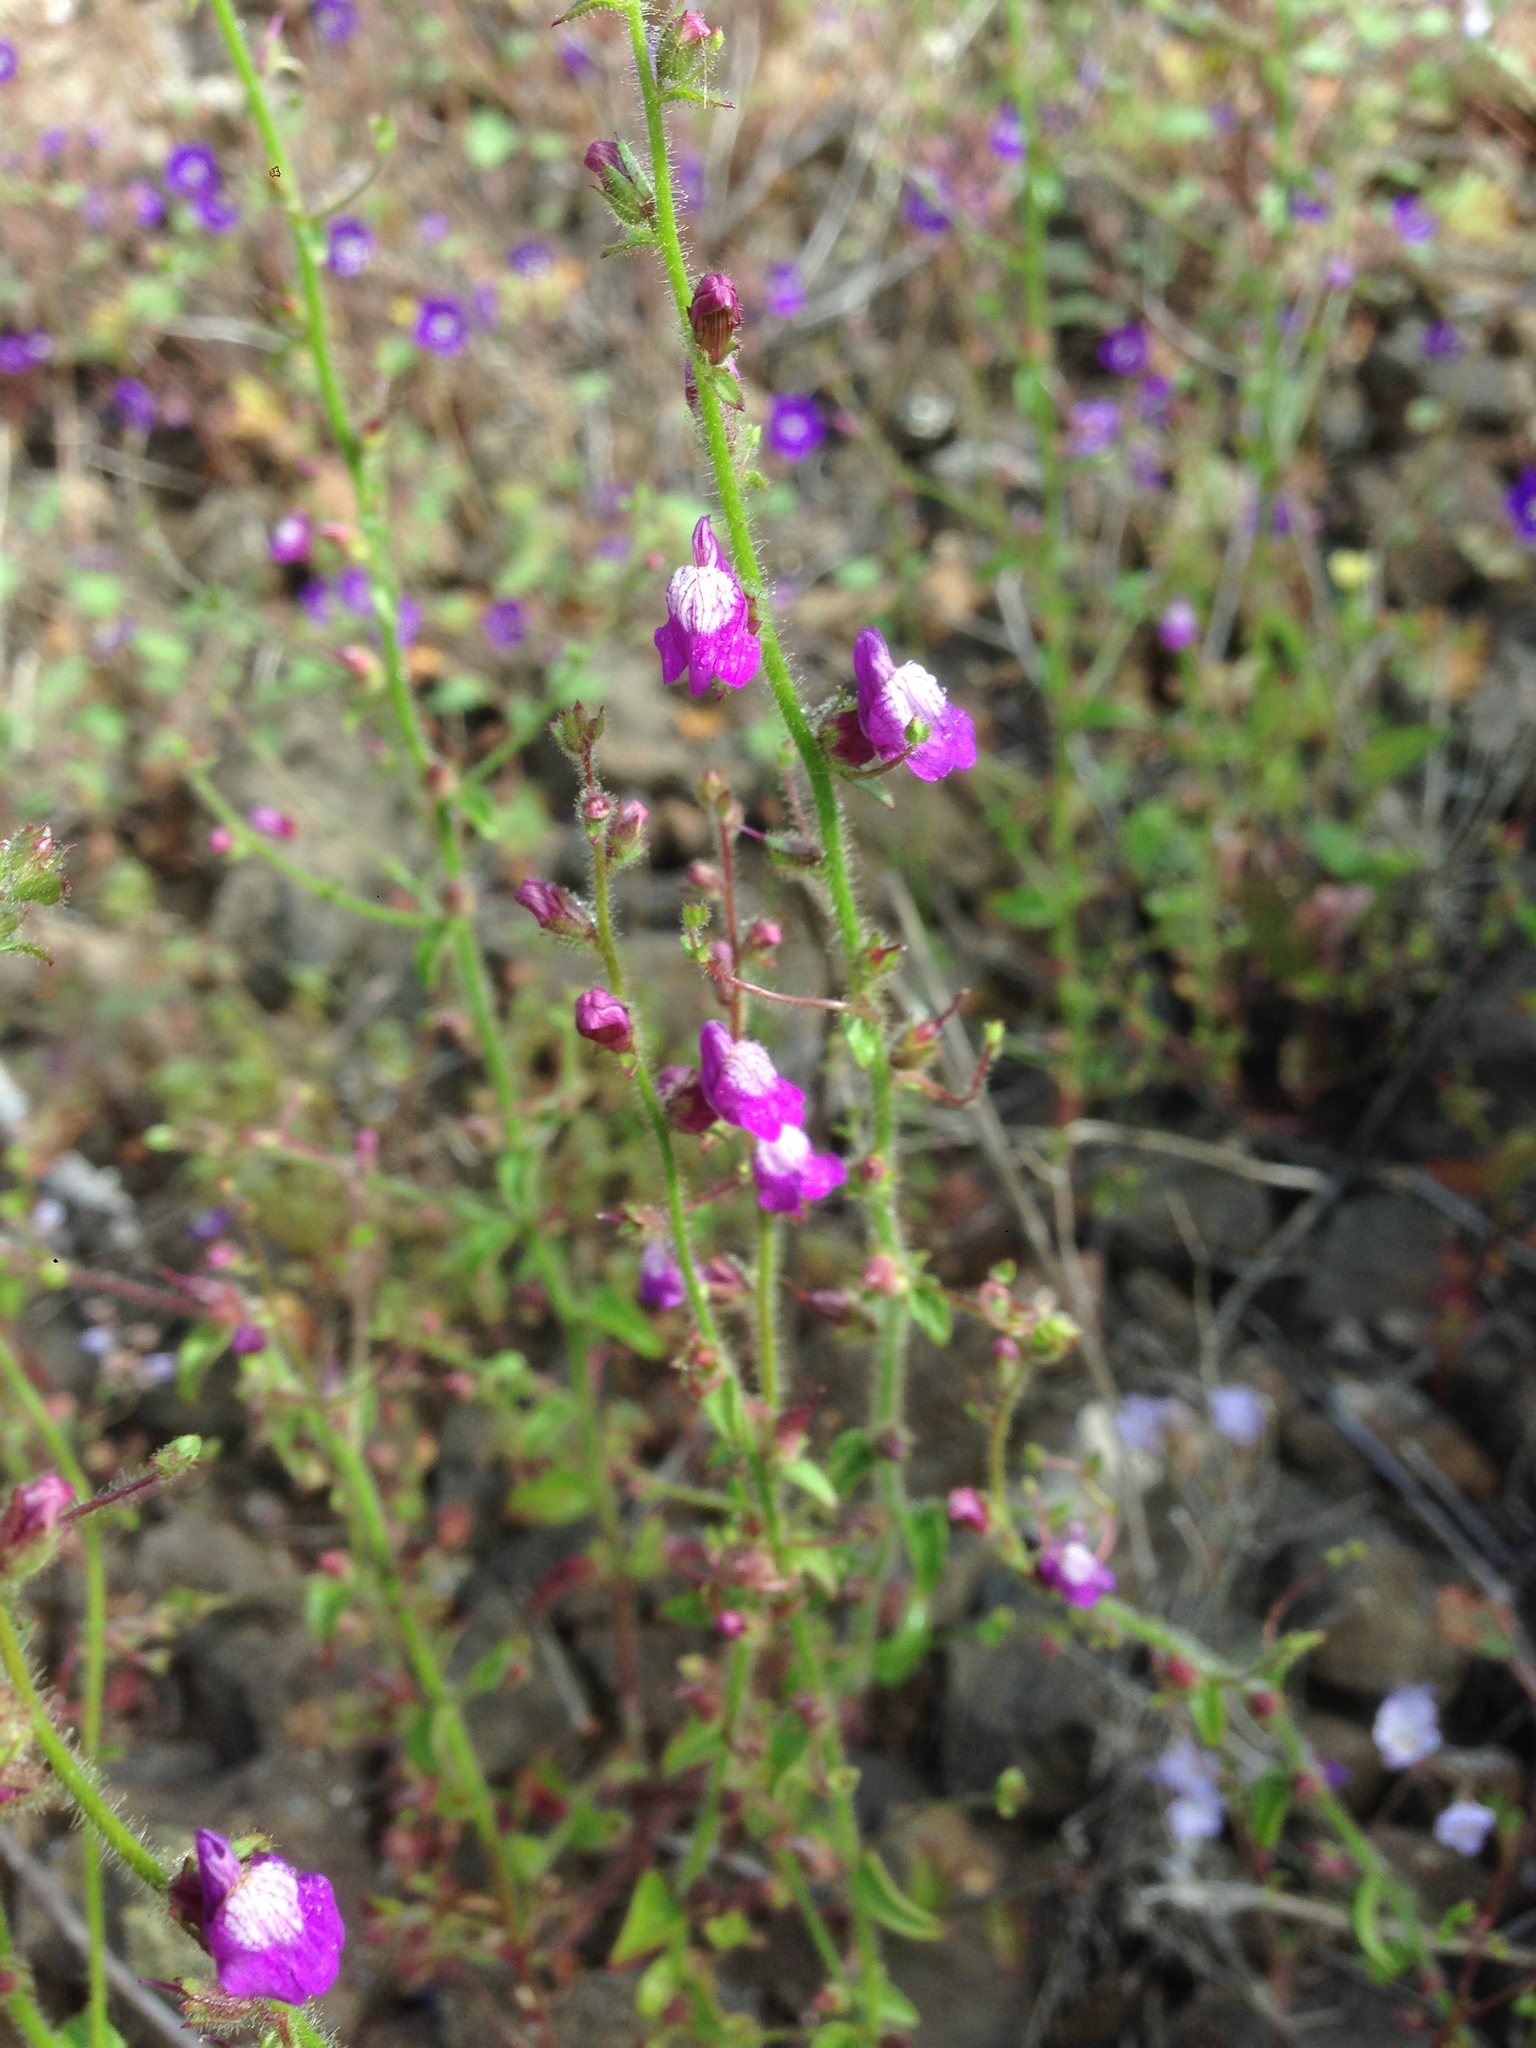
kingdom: Plantae
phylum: Tracheophyta
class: Magnoliopsida
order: Lamiales
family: Plantaginaceae
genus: Sairocarpus
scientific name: Sairocarpus nuttallianus
